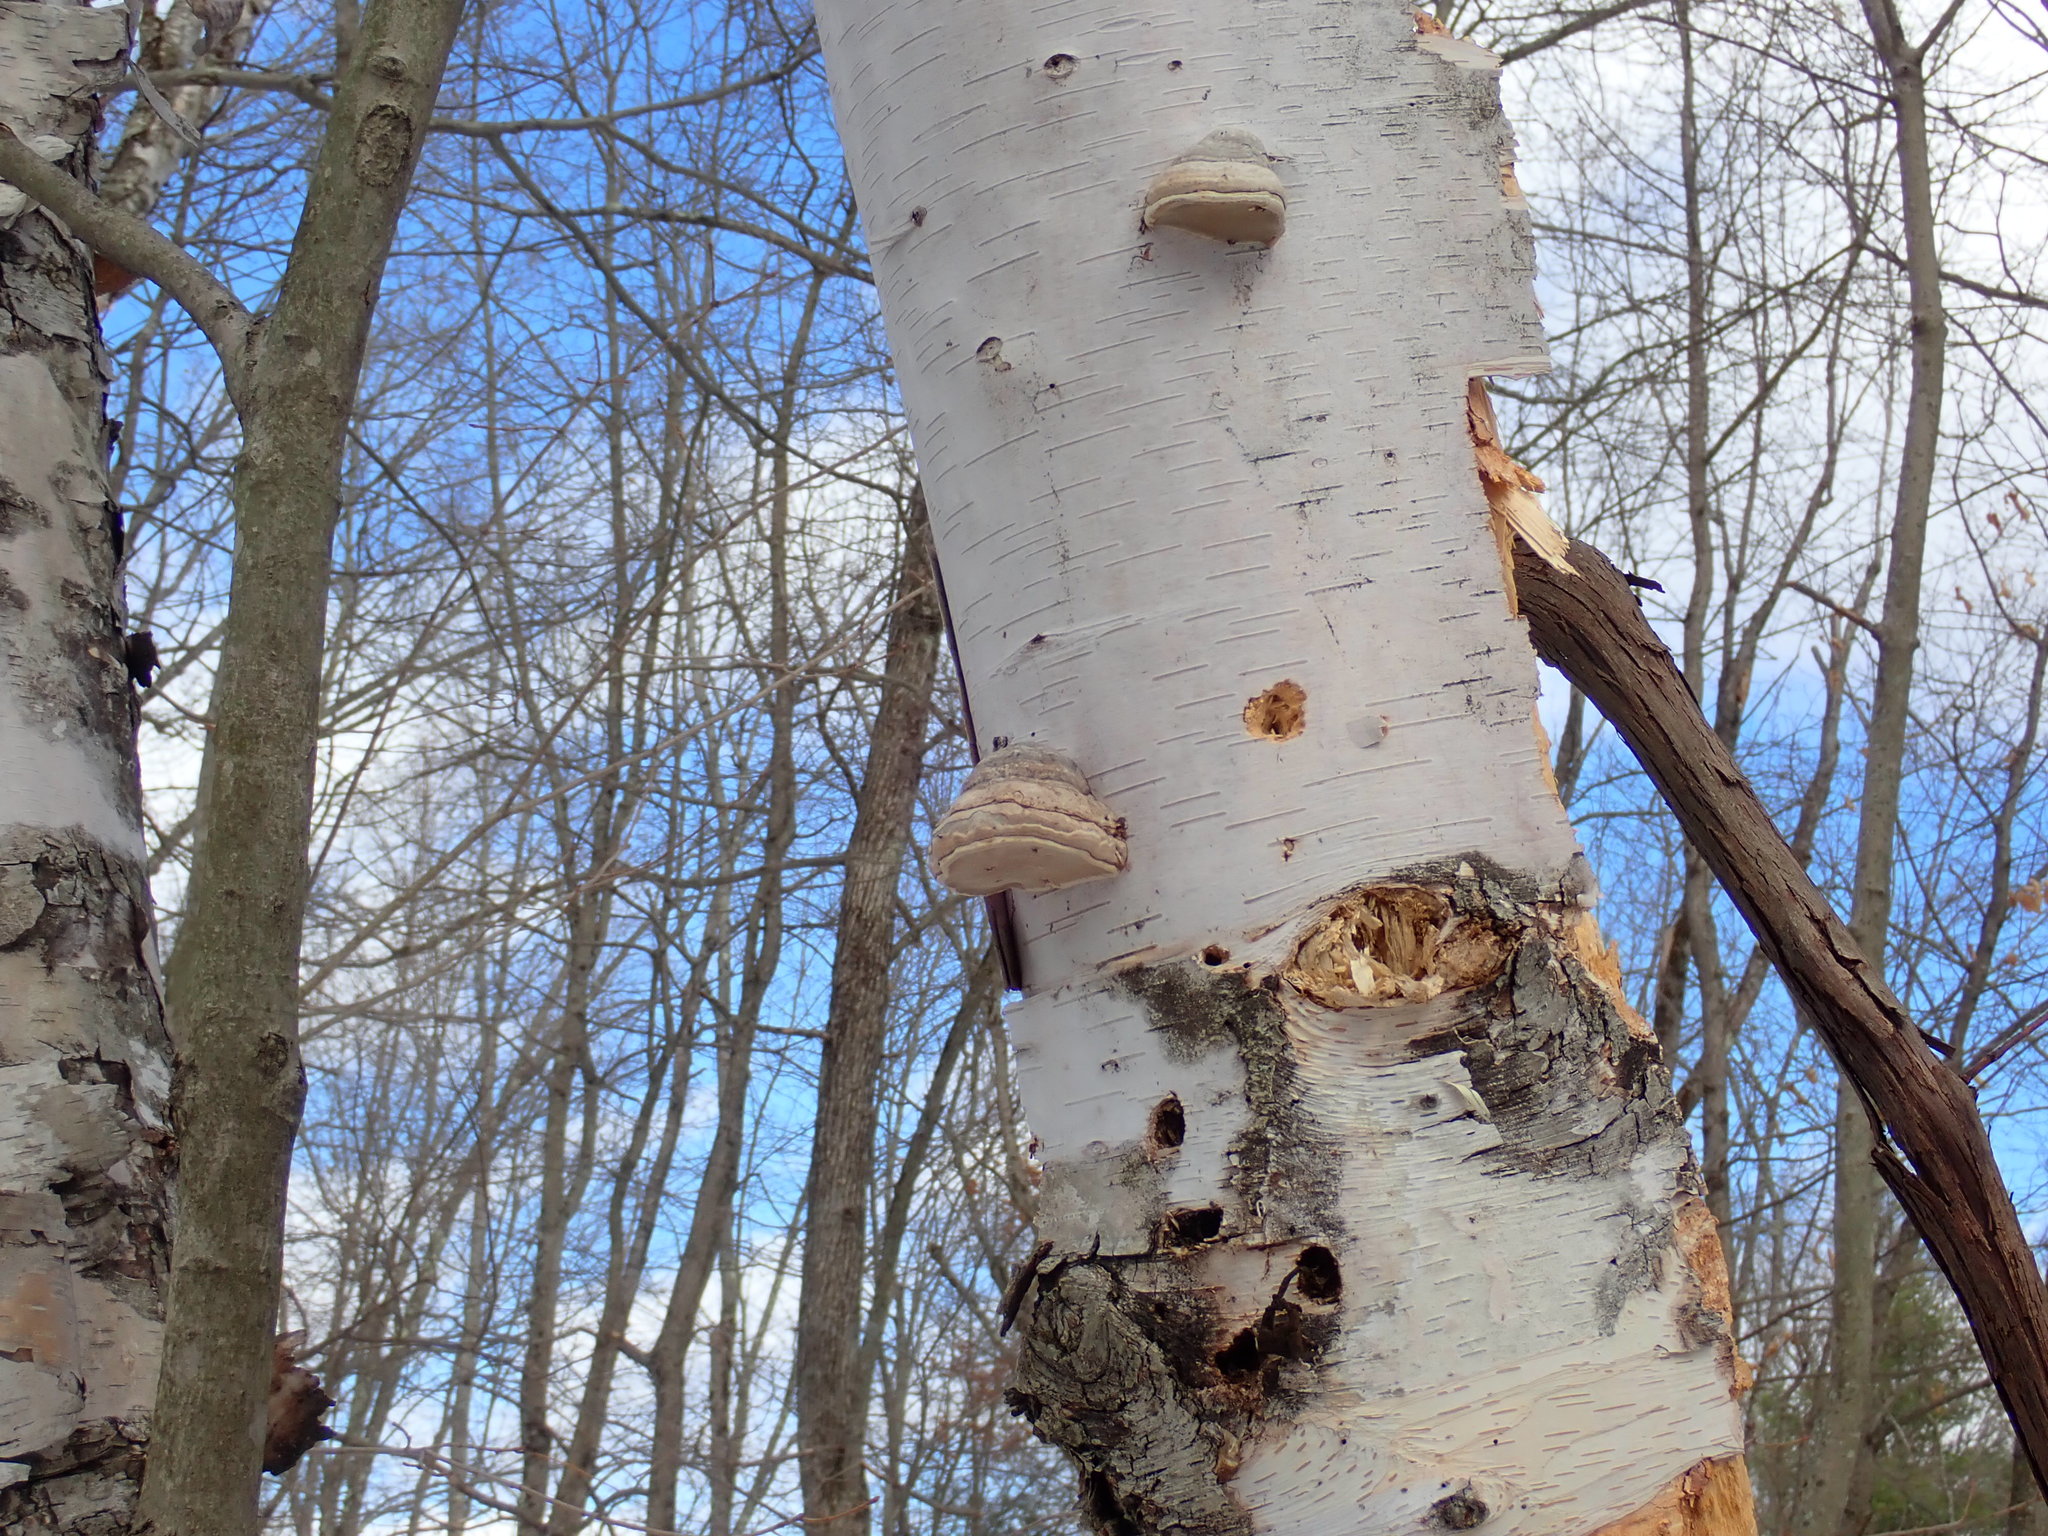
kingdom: Fungi
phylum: Basidiomycota
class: Agaricomycetes
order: Polyporales
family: Polyporaceae
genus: Fomes
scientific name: Fomes fomentarius
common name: Hoof fungus
